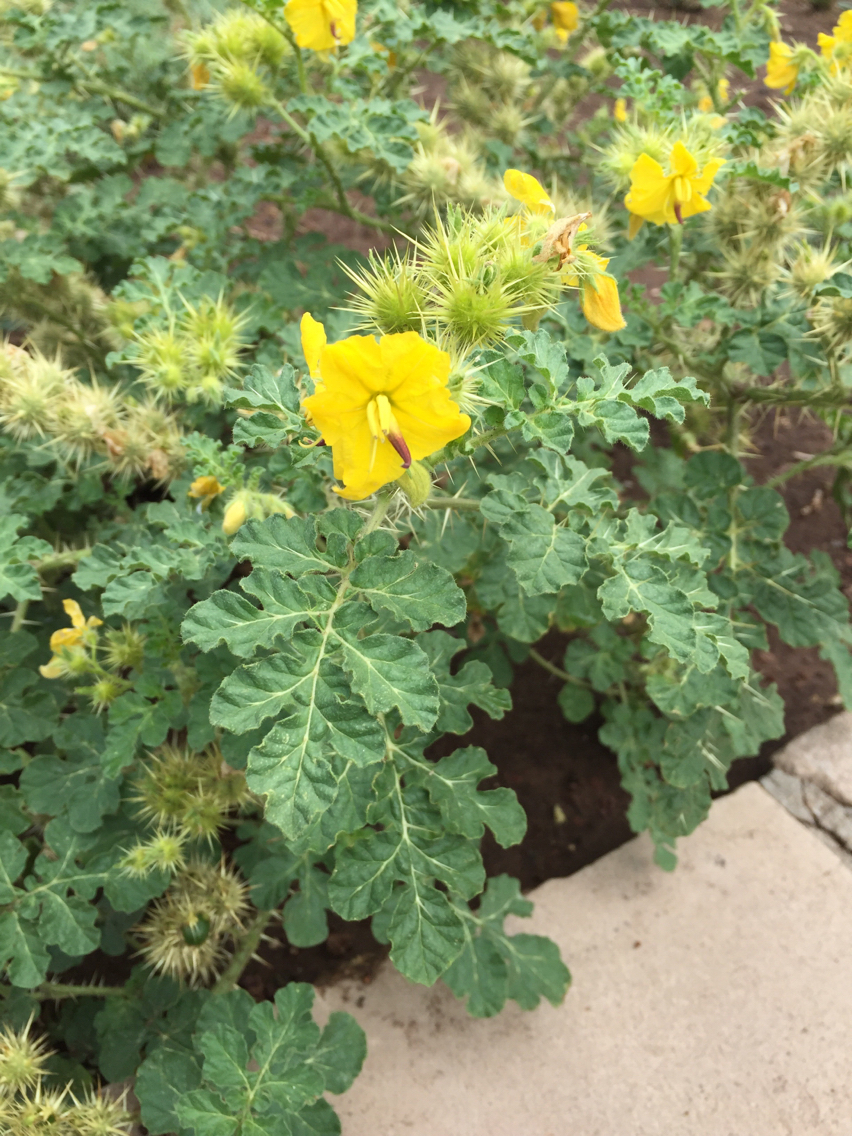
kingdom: Plantae
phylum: Tracheophyta
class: Magnoliopsida
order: Solanales
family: Solanaceae
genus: Solanum
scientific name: Solanum angustifolium
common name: Buffalobur nightshade
